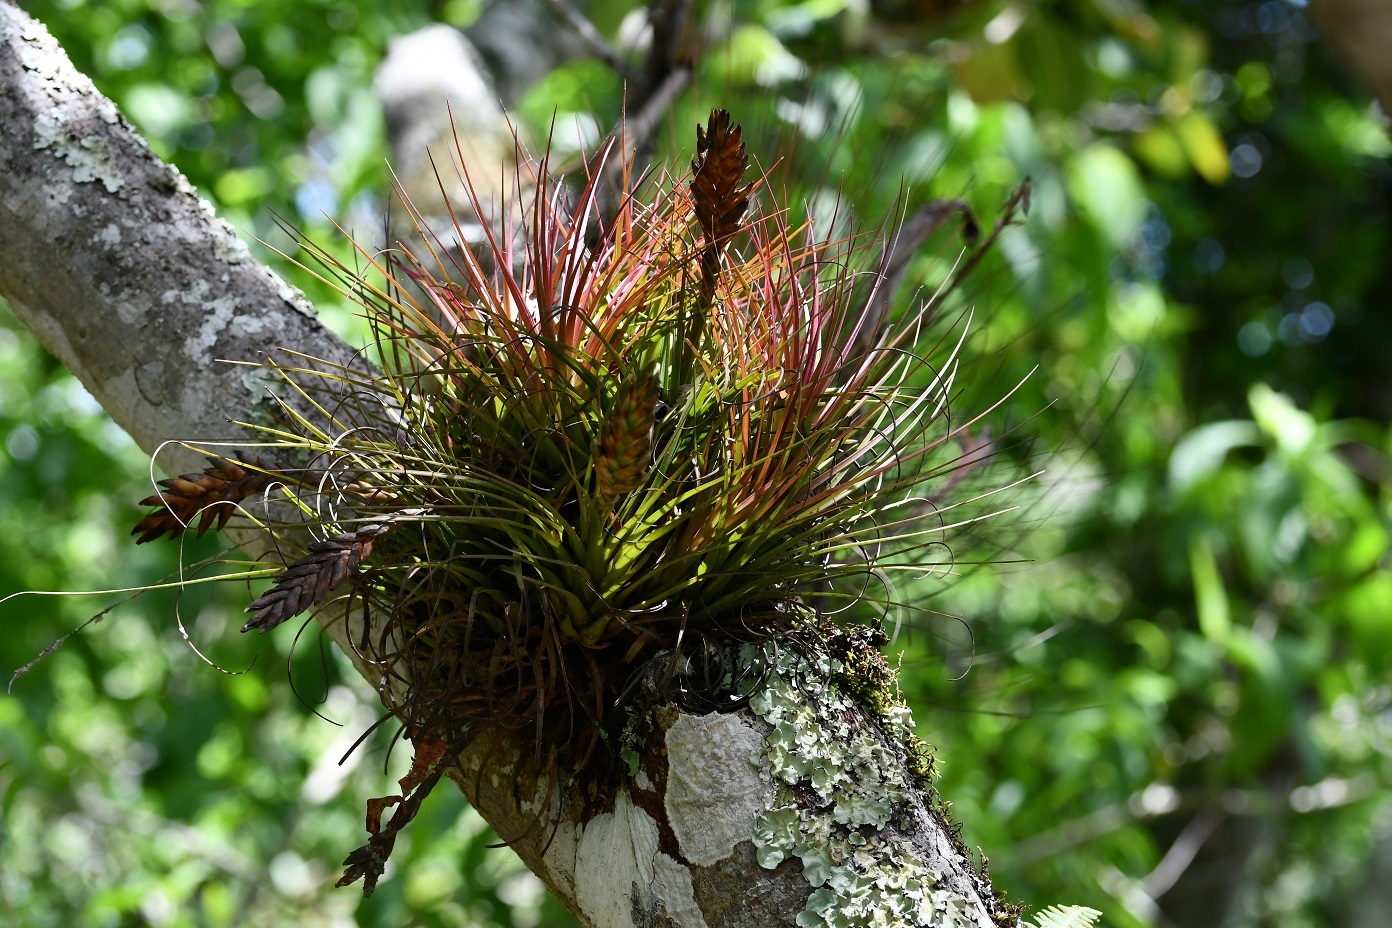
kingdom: Plantae
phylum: Tracheophyta
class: Liliopsida
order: Poales
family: Bromeliaceae
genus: Tillandsia
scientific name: Tillandsia compressa
